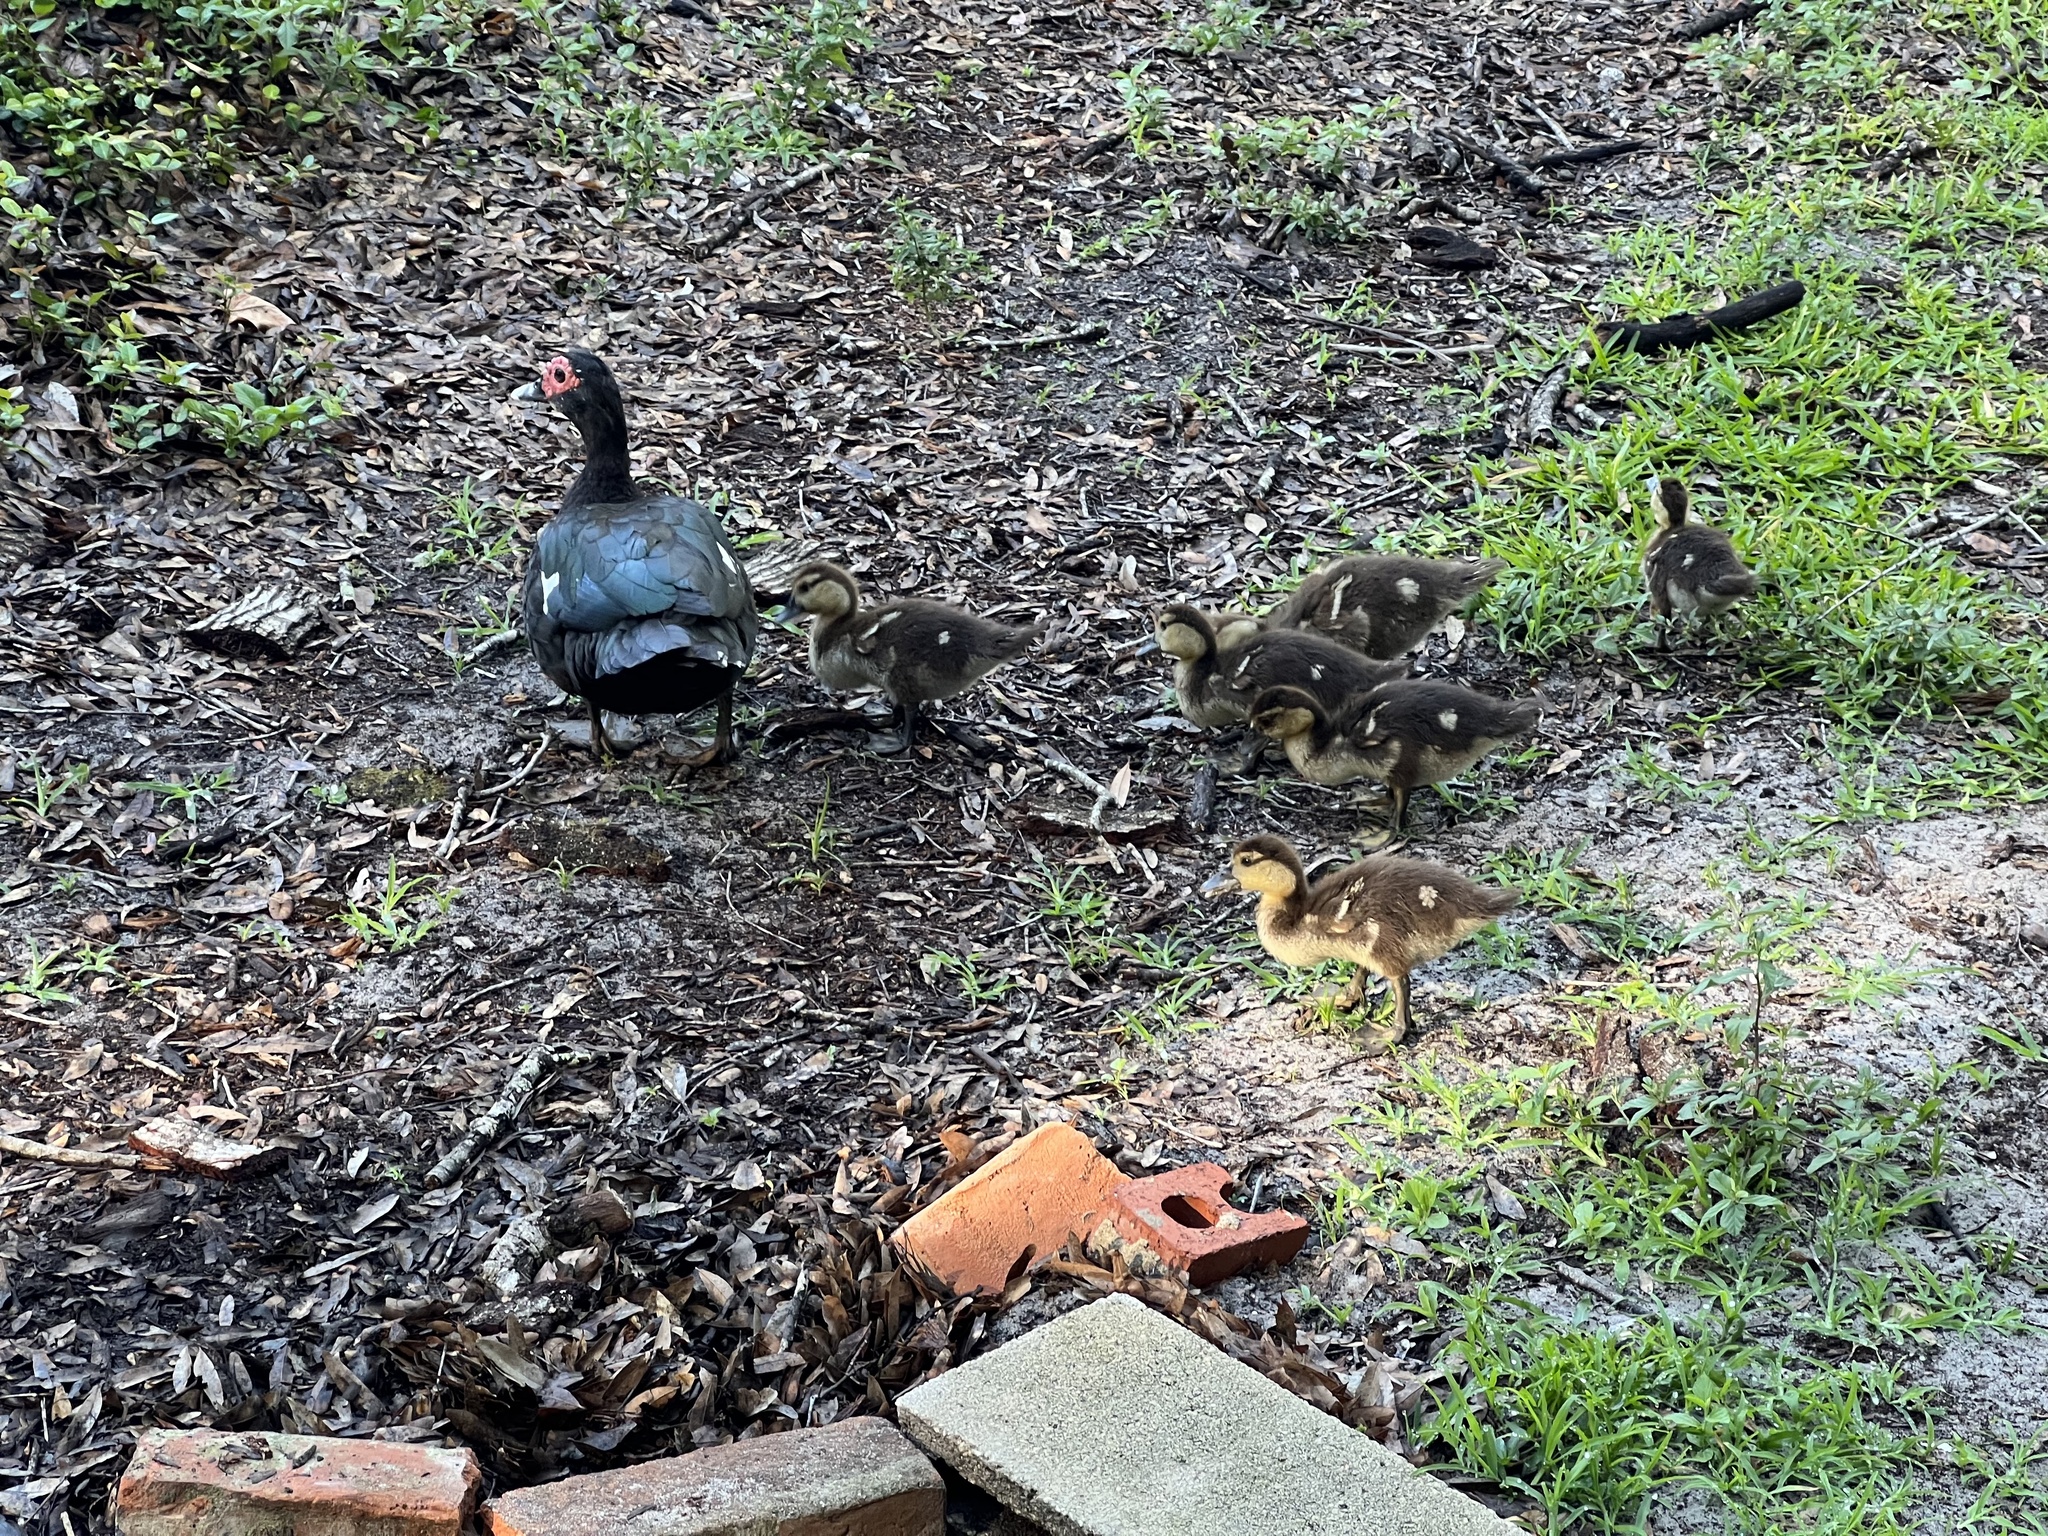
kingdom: Animalia
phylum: Chordata
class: Aves
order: Anseriformes
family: Anatidae
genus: Cairina
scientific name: Cairina moschata
